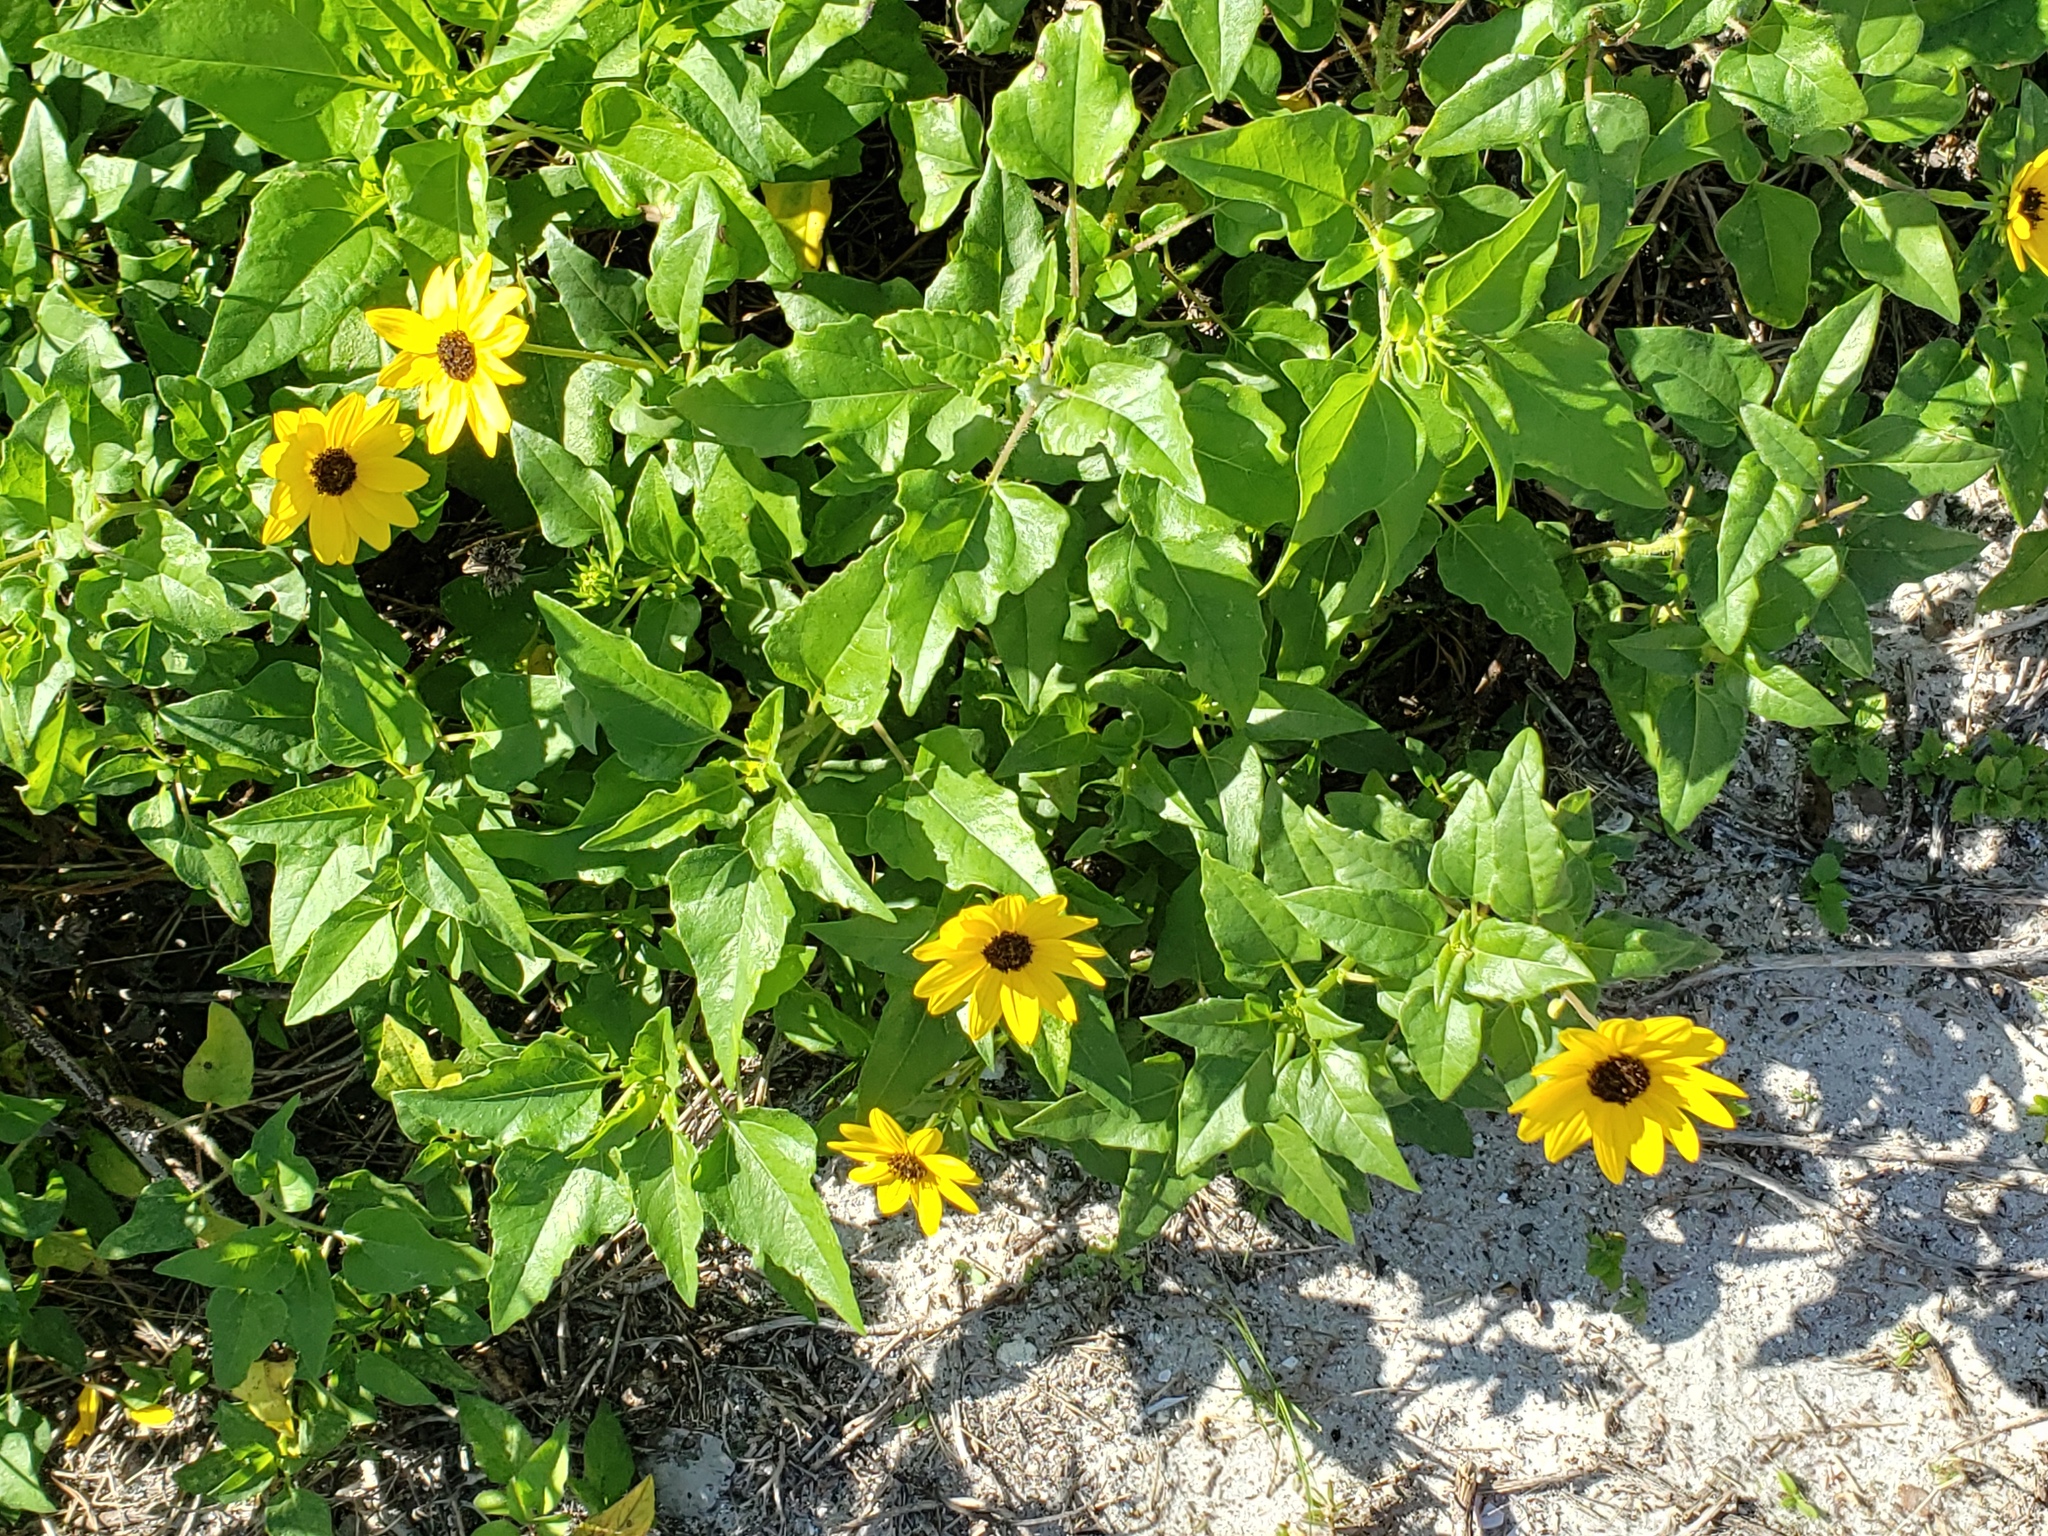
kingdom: Plantae
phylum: Tracheophyta
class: Magnoliopsida
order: Asterales
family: Asteraceae
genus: Helianthus
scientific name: Helianthus debilis
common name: Weak sunflower
